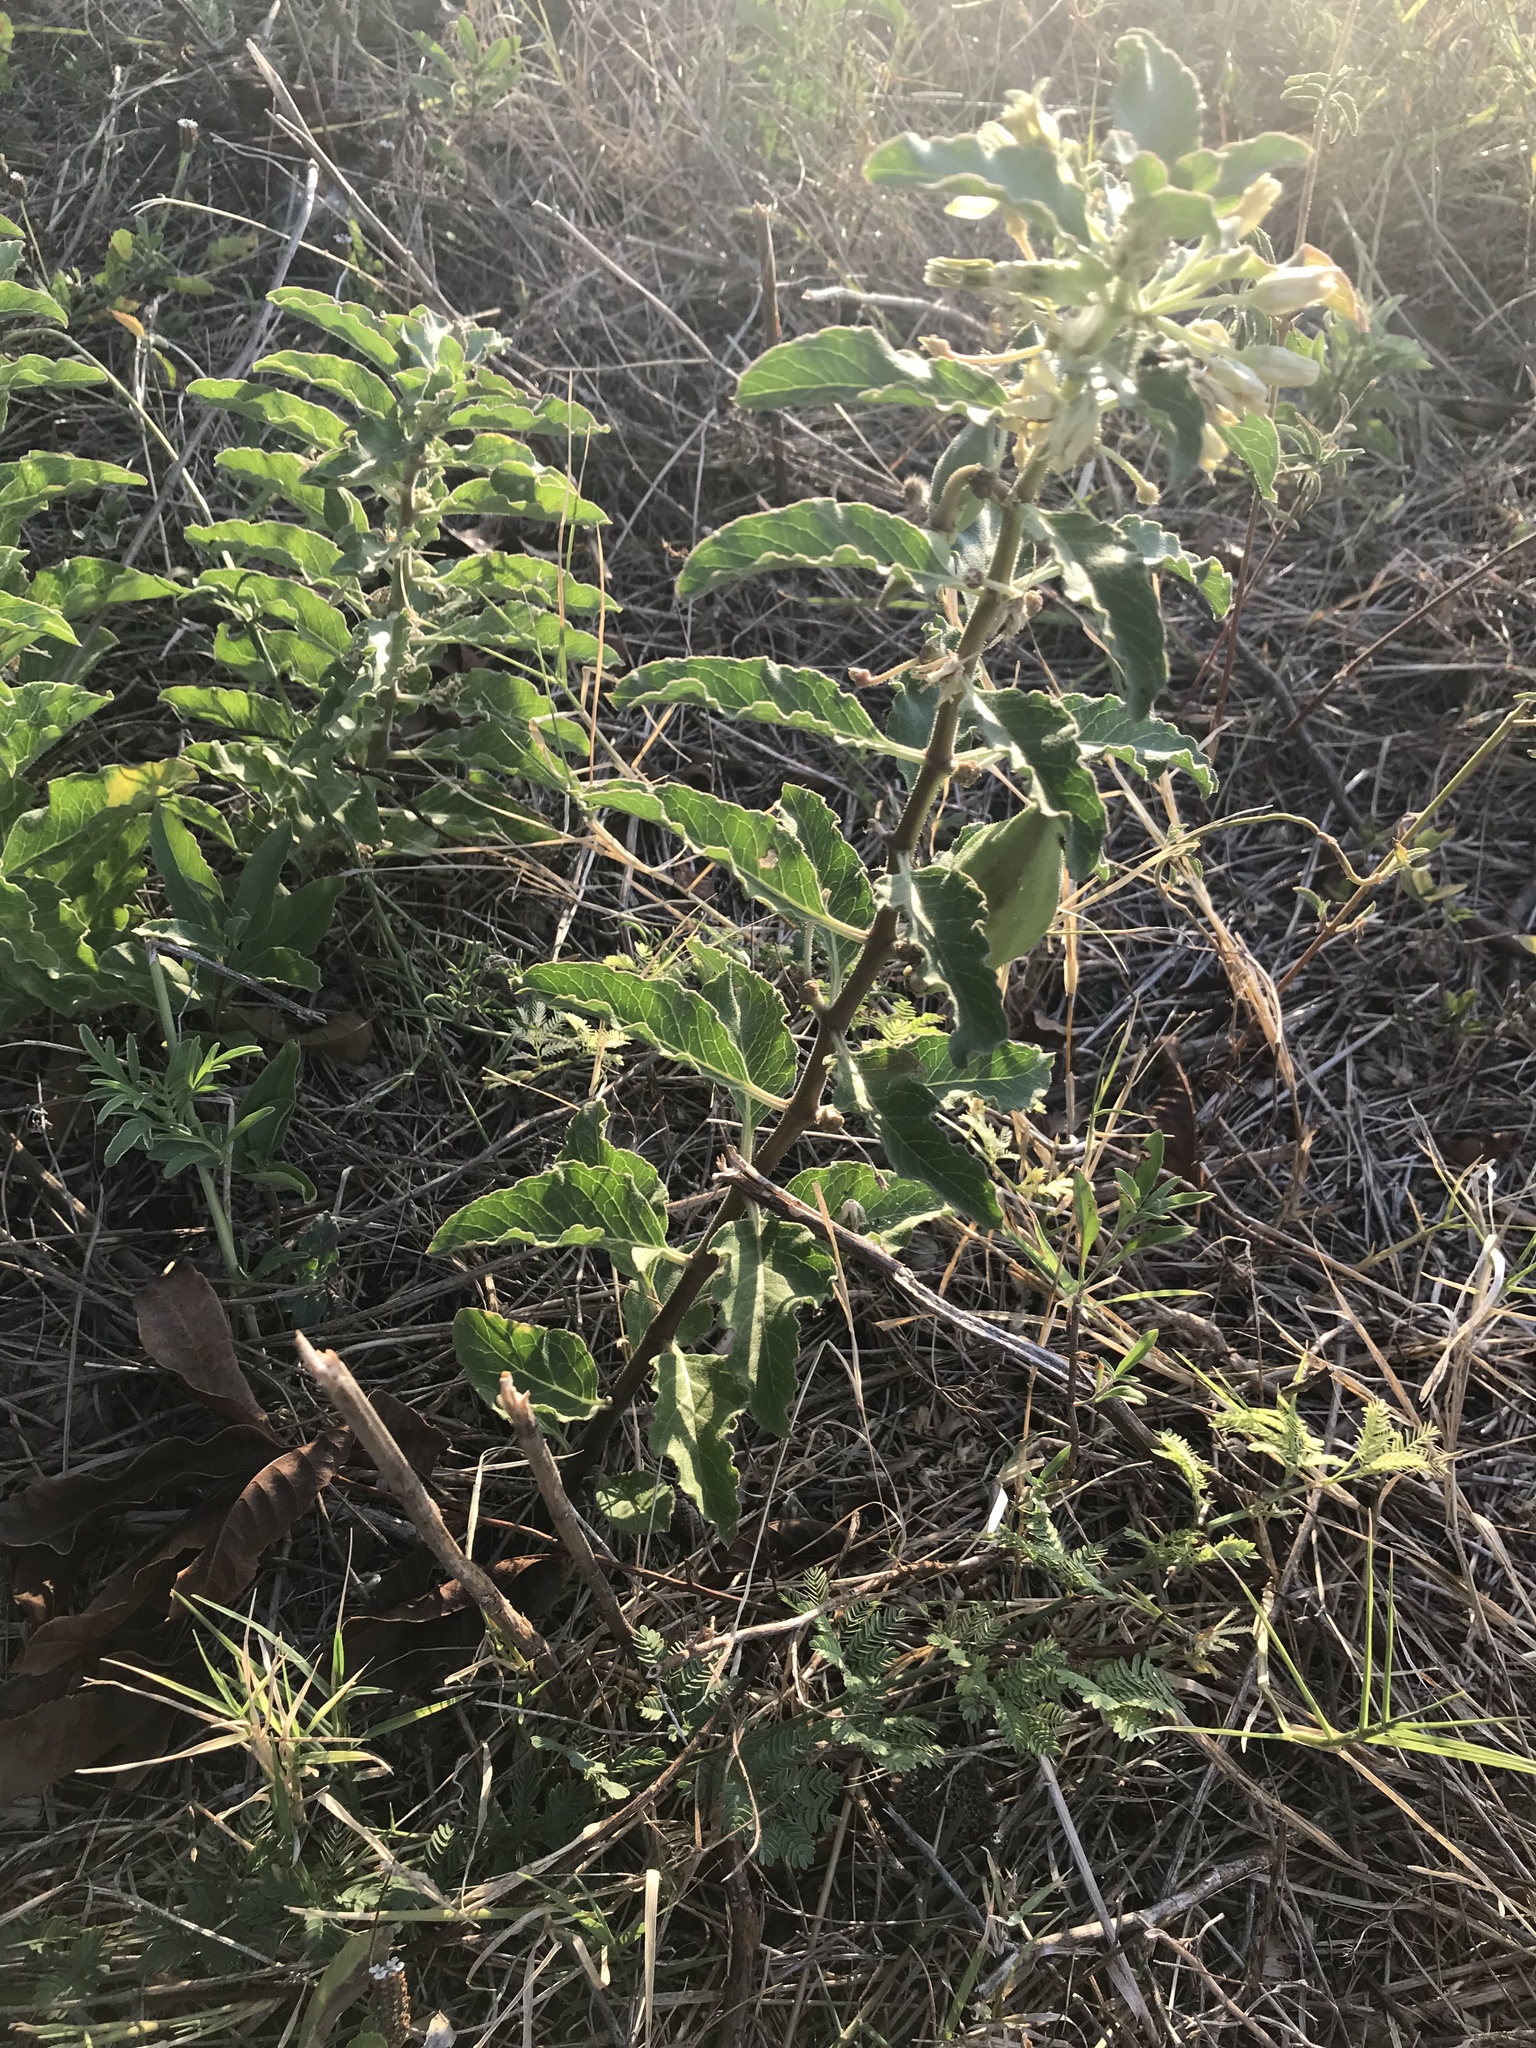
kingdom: Plantae
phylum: Tracheophyta
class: Magnoliopsida
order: Gentianales
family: Apocynaceae
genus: Asclepias
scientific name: Asclepias oenotheroides
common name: Zizotes milkweed
